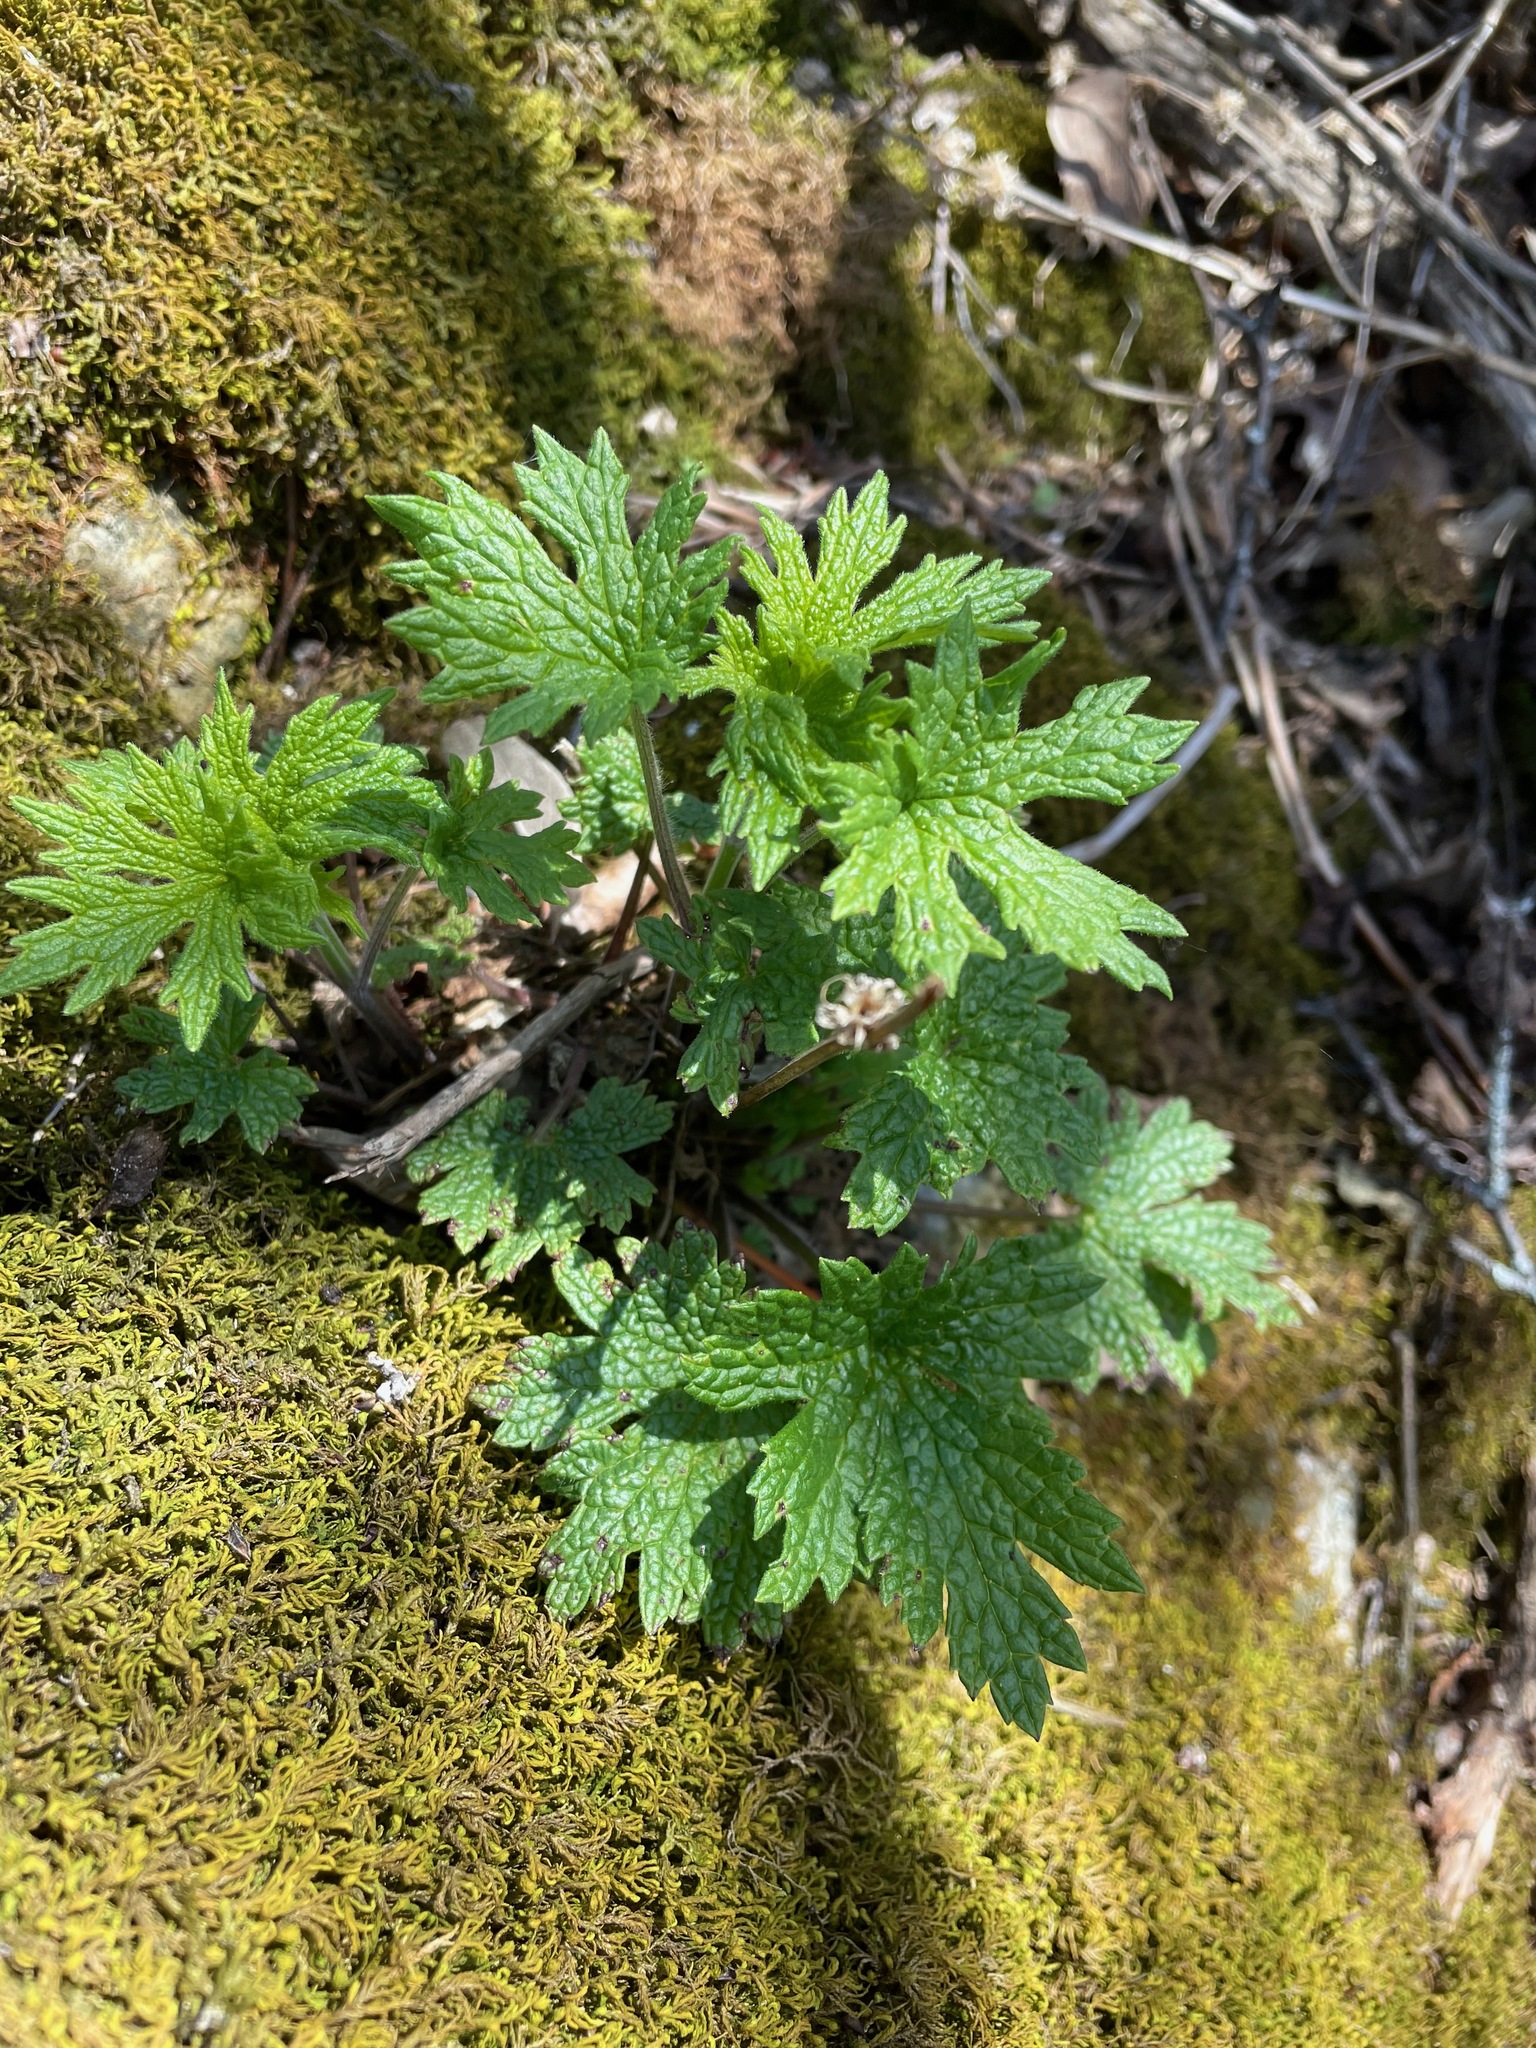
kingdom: Plantae
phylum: Tracheophyta
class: Magnoliopsida
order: Lamiales
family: Lamiaceae
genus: Leonurus
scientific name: Leonurus cardiaca
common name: Motherwort
